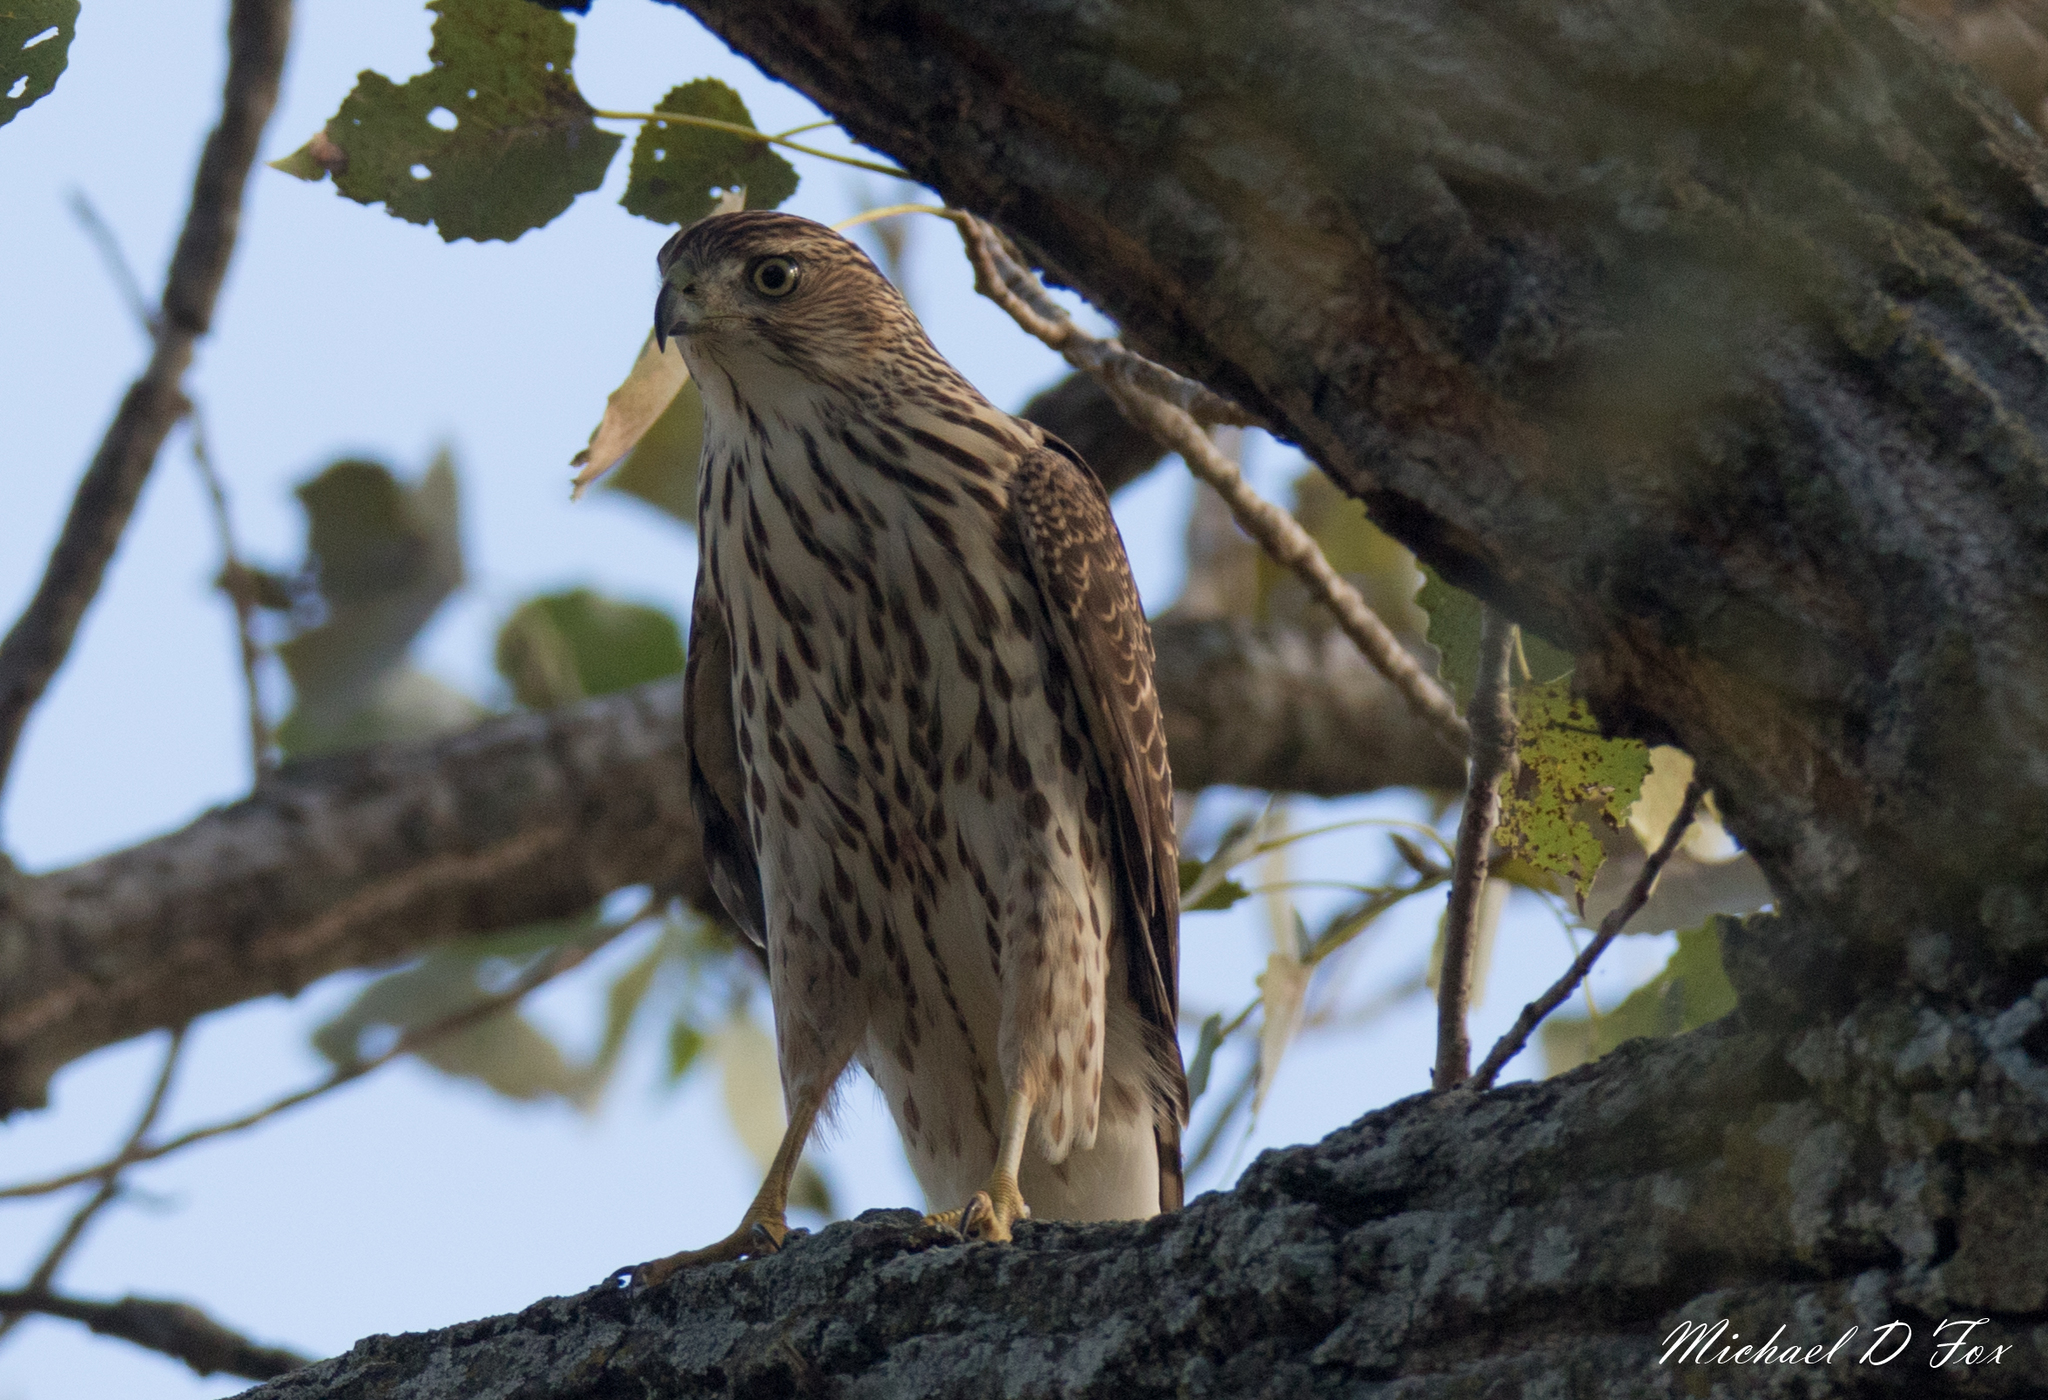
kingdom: Animalia
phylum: Chordata
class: Aves
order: Accipitriformes
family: Accipitridae
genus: Accipiter
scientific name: Accipiter cooperii
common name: Cooper's hawk
